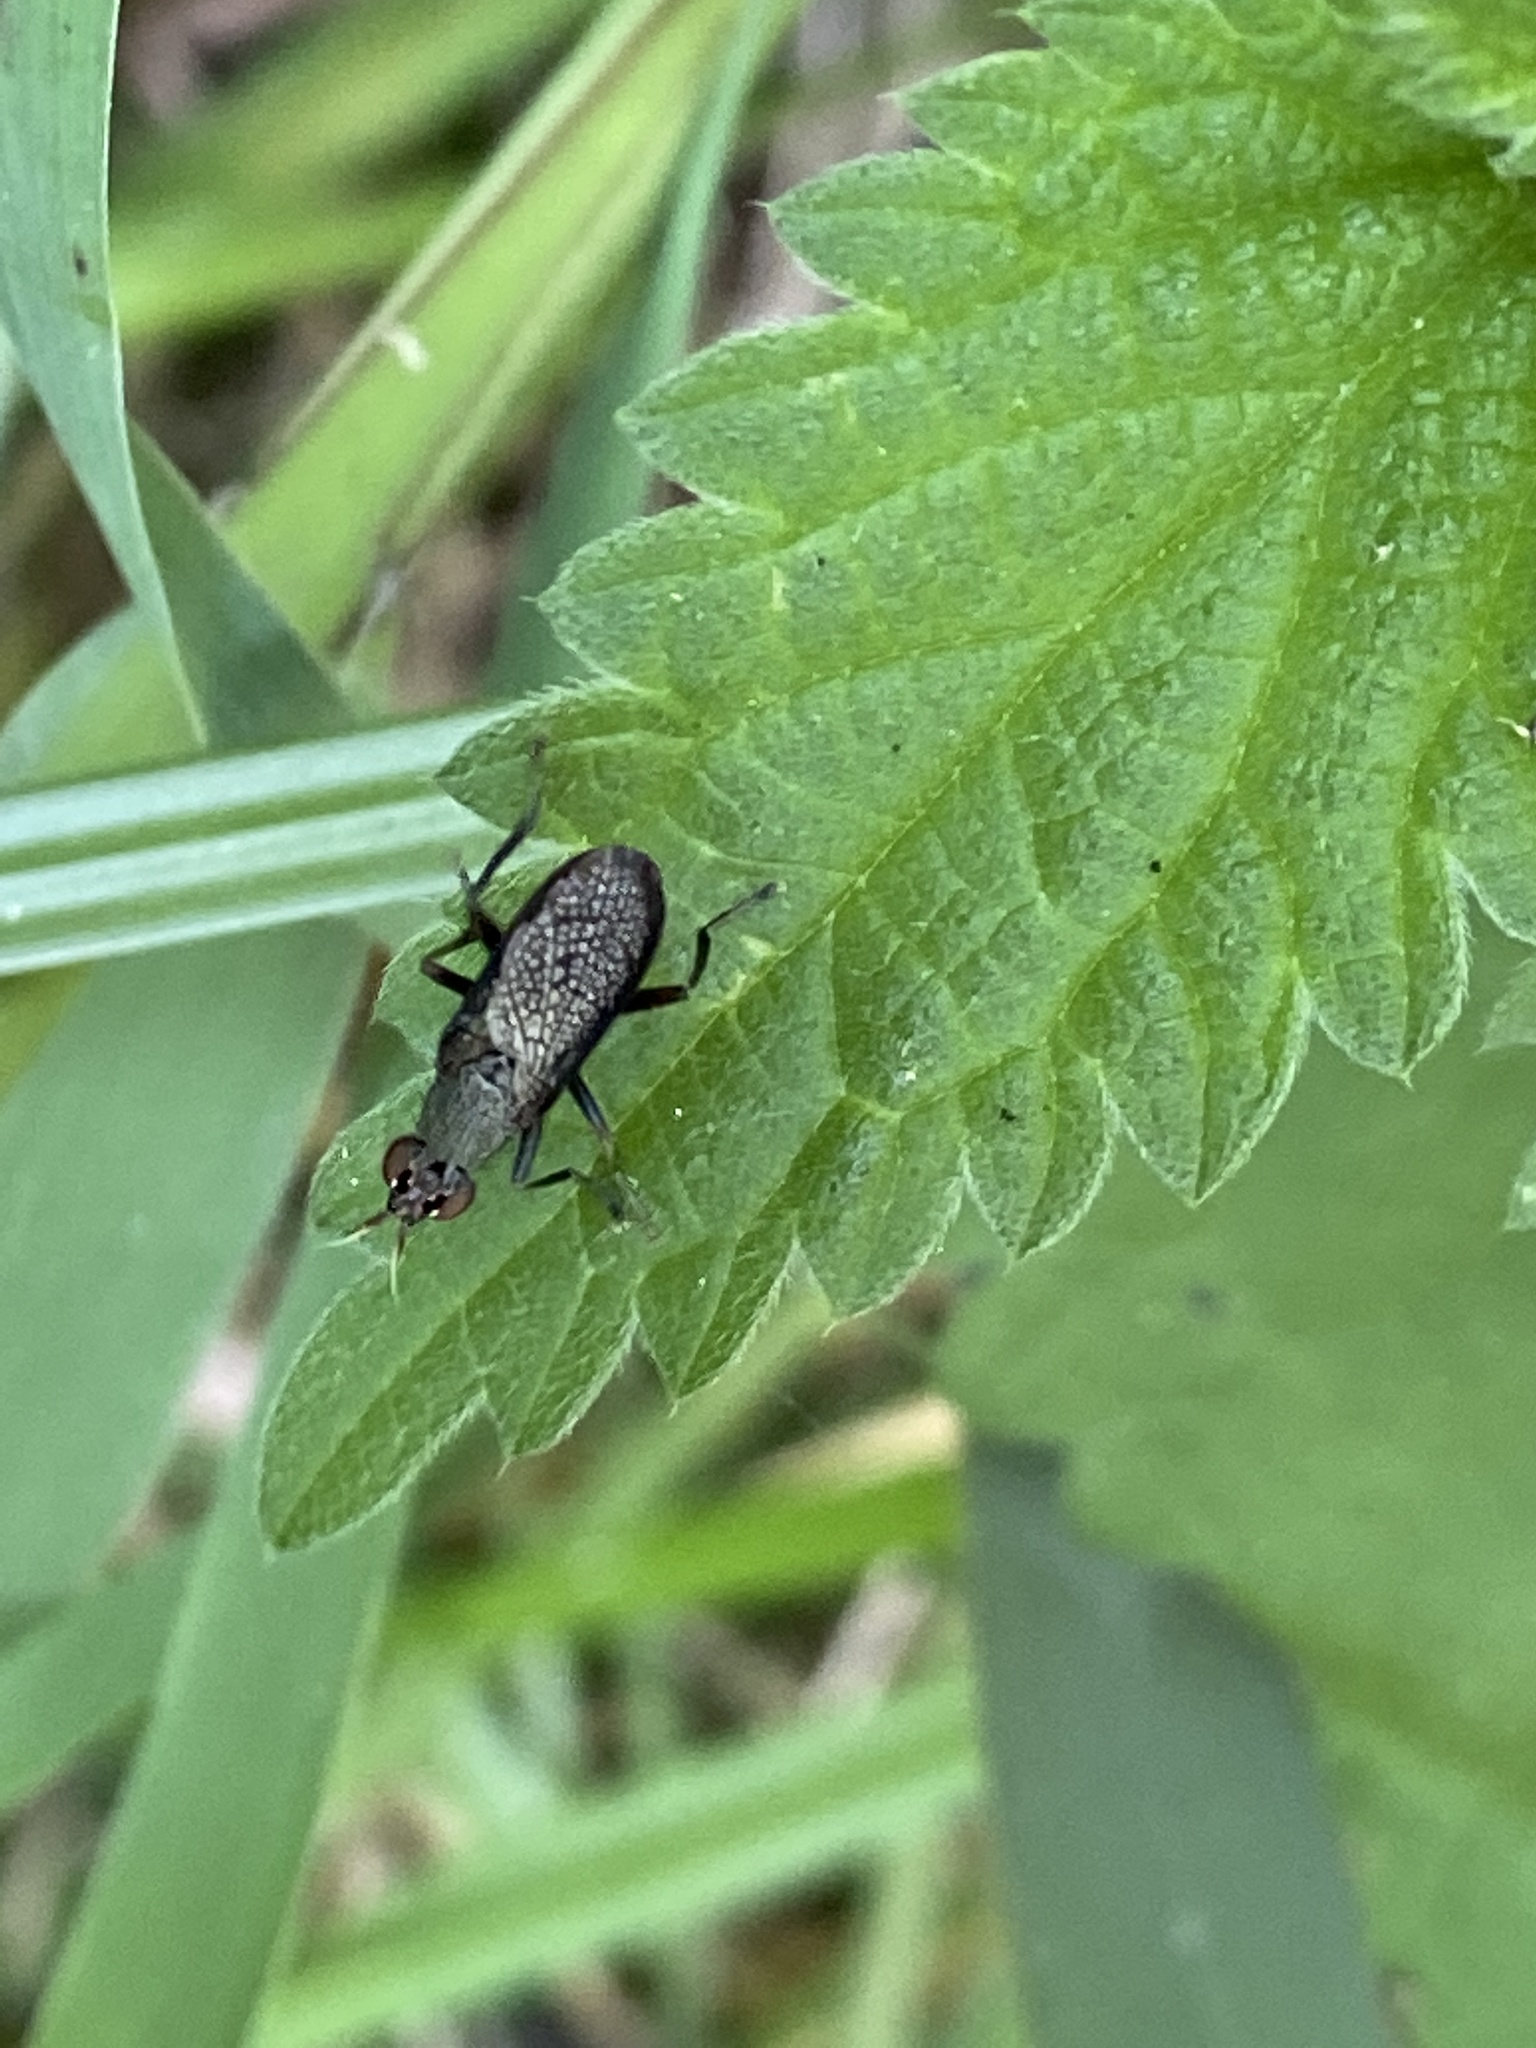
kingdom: Animalia
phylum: Arthropoda
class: Insecta
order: Diptera
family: Sciomyzidae
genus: Coremacera
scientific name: Coremacera marginata
